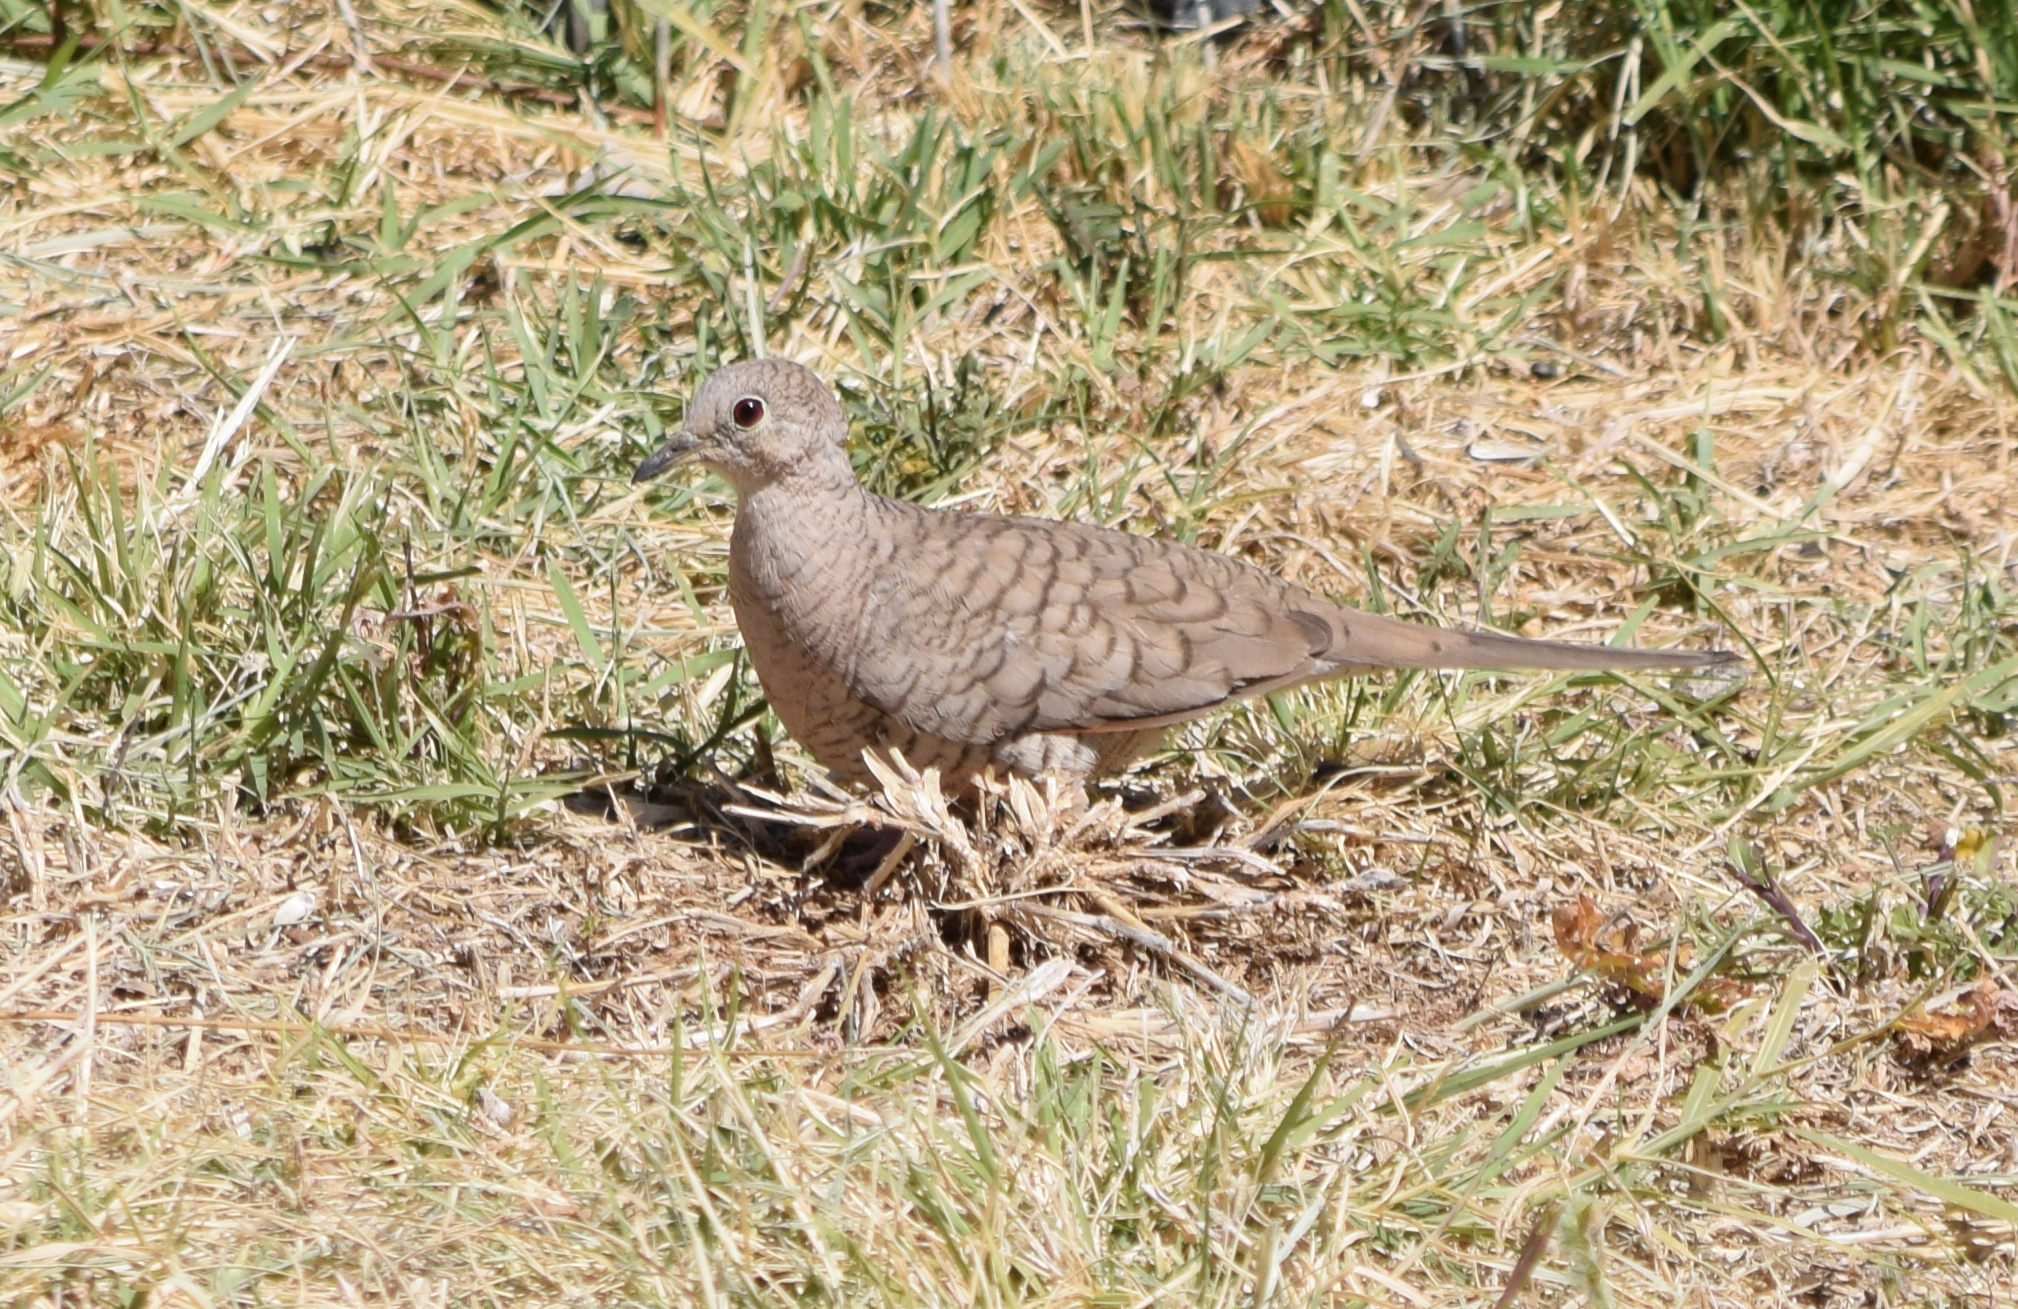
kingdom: Animalia
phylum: Chordata
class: Aves
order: Columbiformes
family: Columbidae
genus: Columbina
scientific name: Columbina inca
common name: Inca dove
